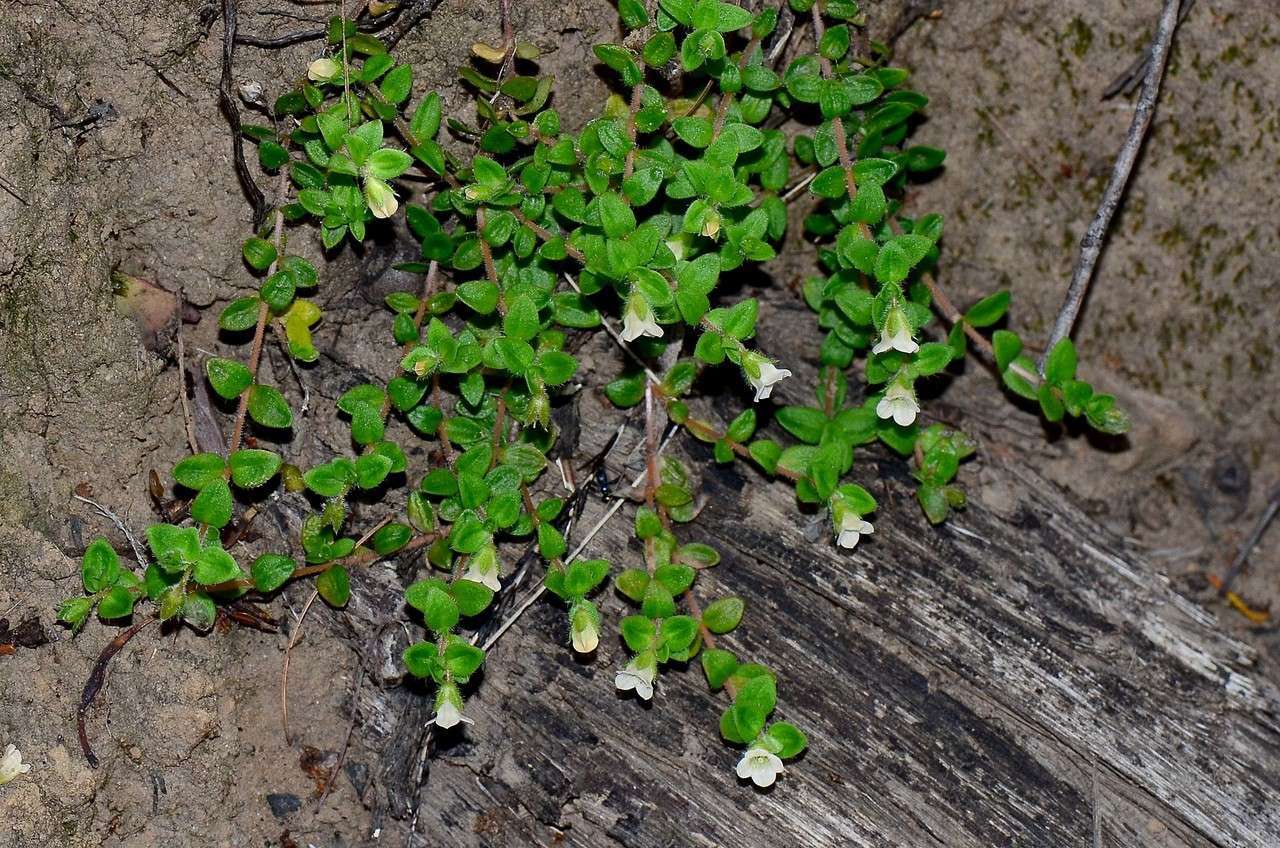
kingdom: Plantae
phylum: Tracheophyta
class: Magnoliopsida
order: Gentianales
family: Loganiaceae
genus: Mitrasacme
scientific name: Mitrasacme pilosa
